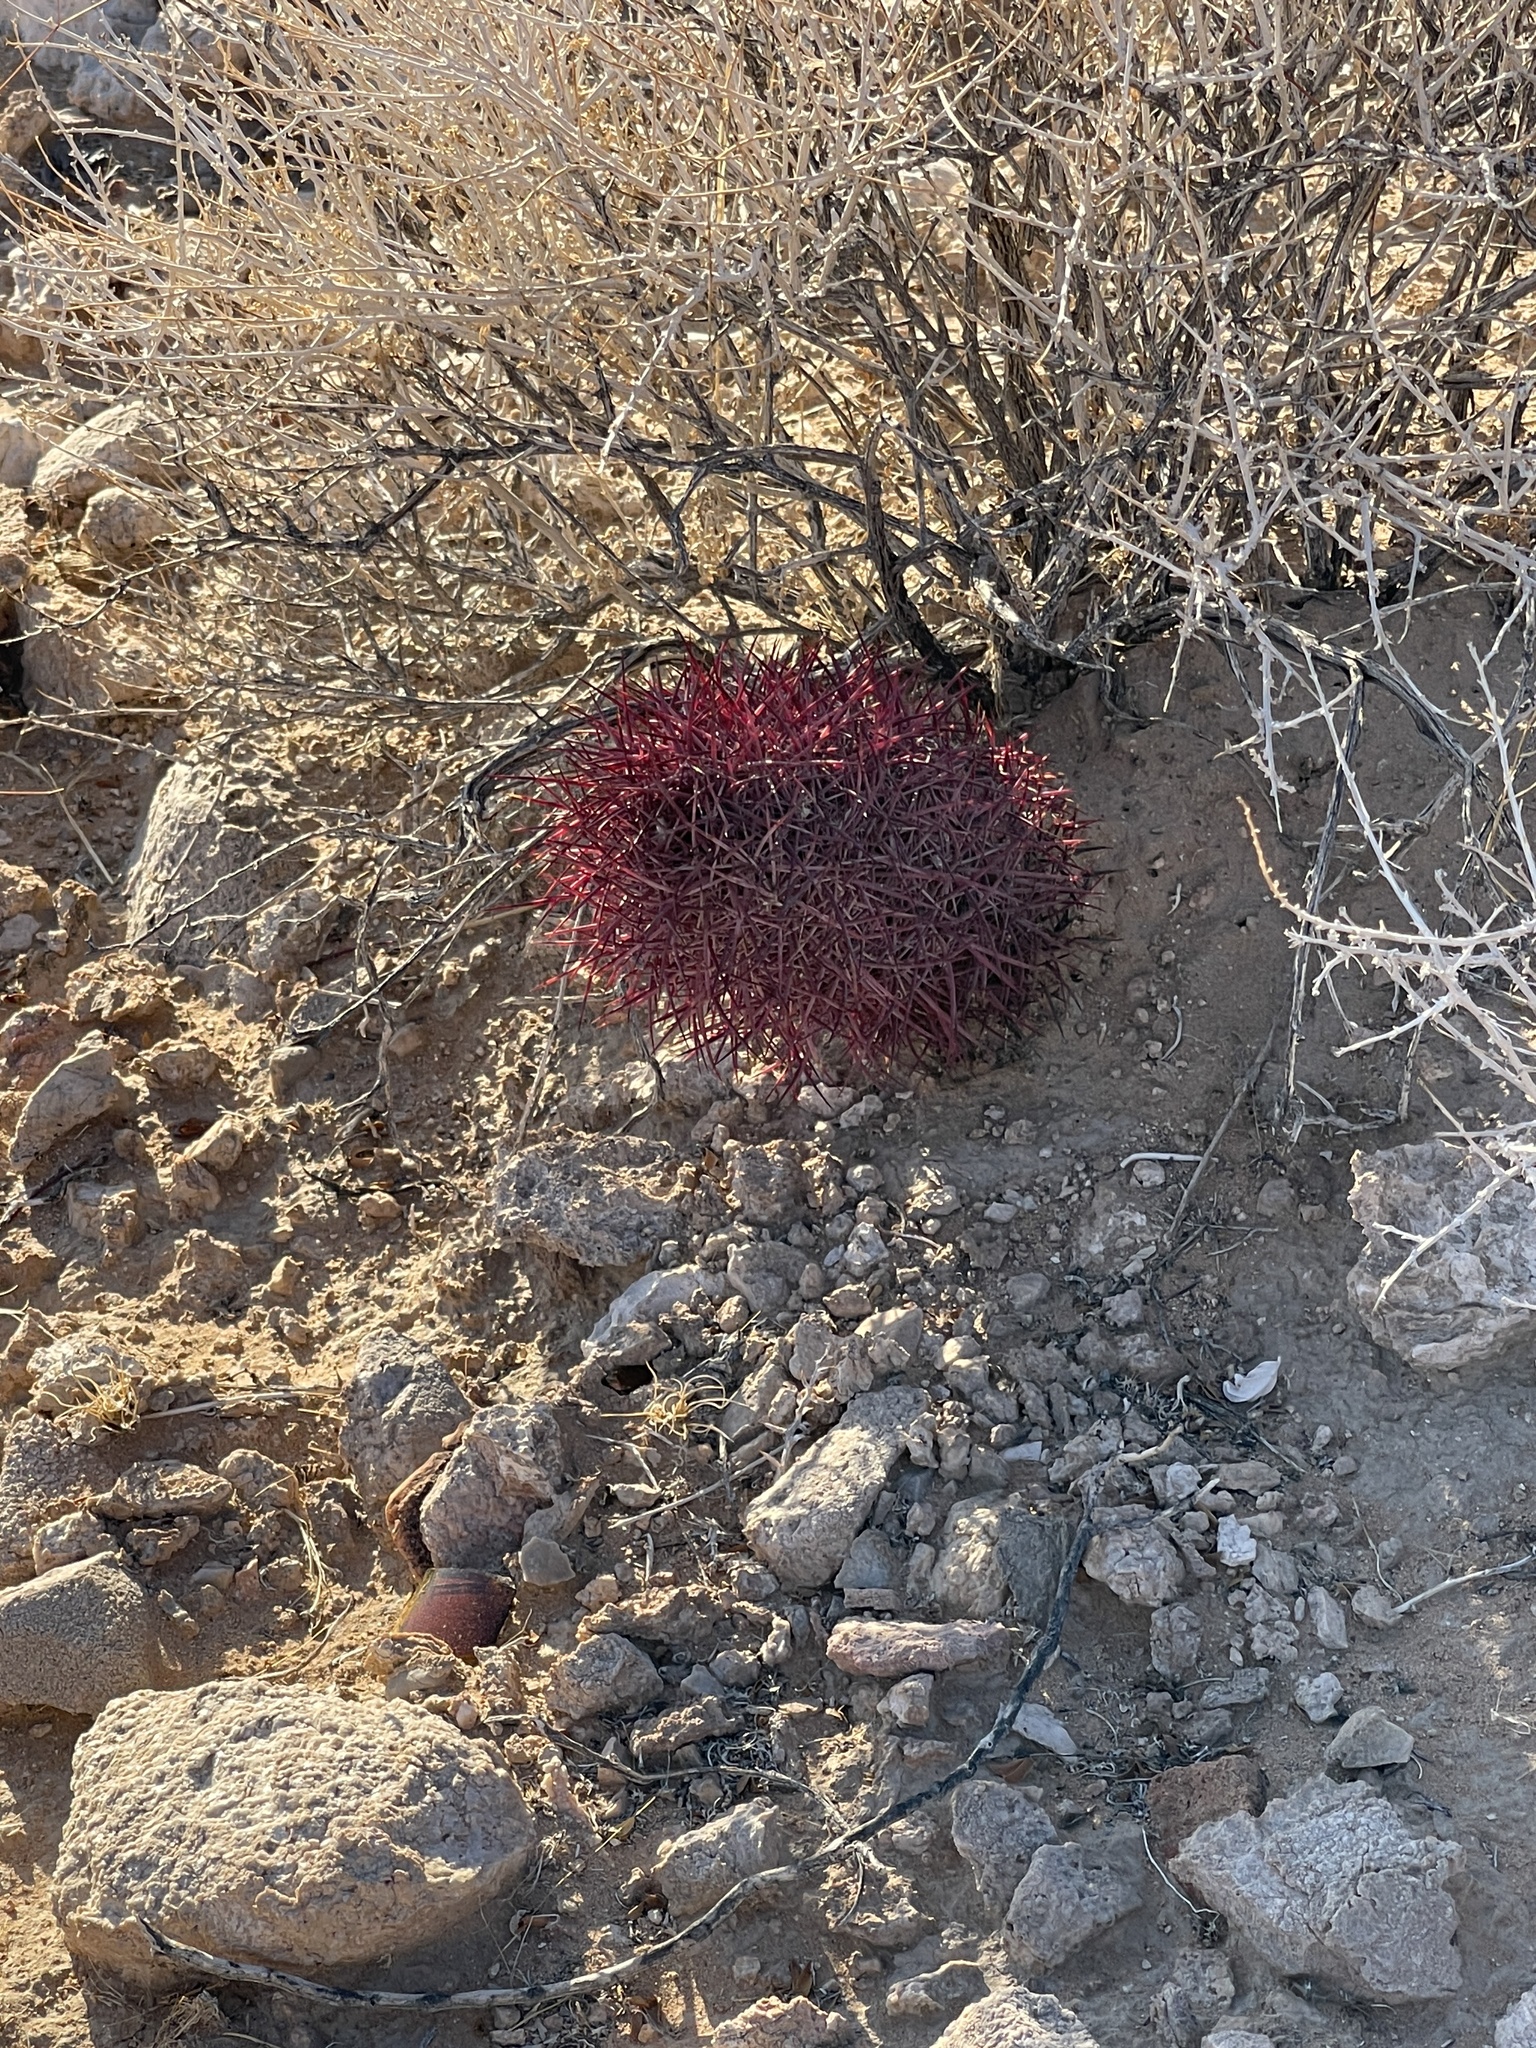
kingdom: Plantae
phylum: Tracheophyta
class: Magnoliopsida
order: Caryophyllales
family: Cactaceae
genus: Sclerocactus
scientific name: Sclerocactus johnsonii
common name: Eight-spine fishhook cactus
